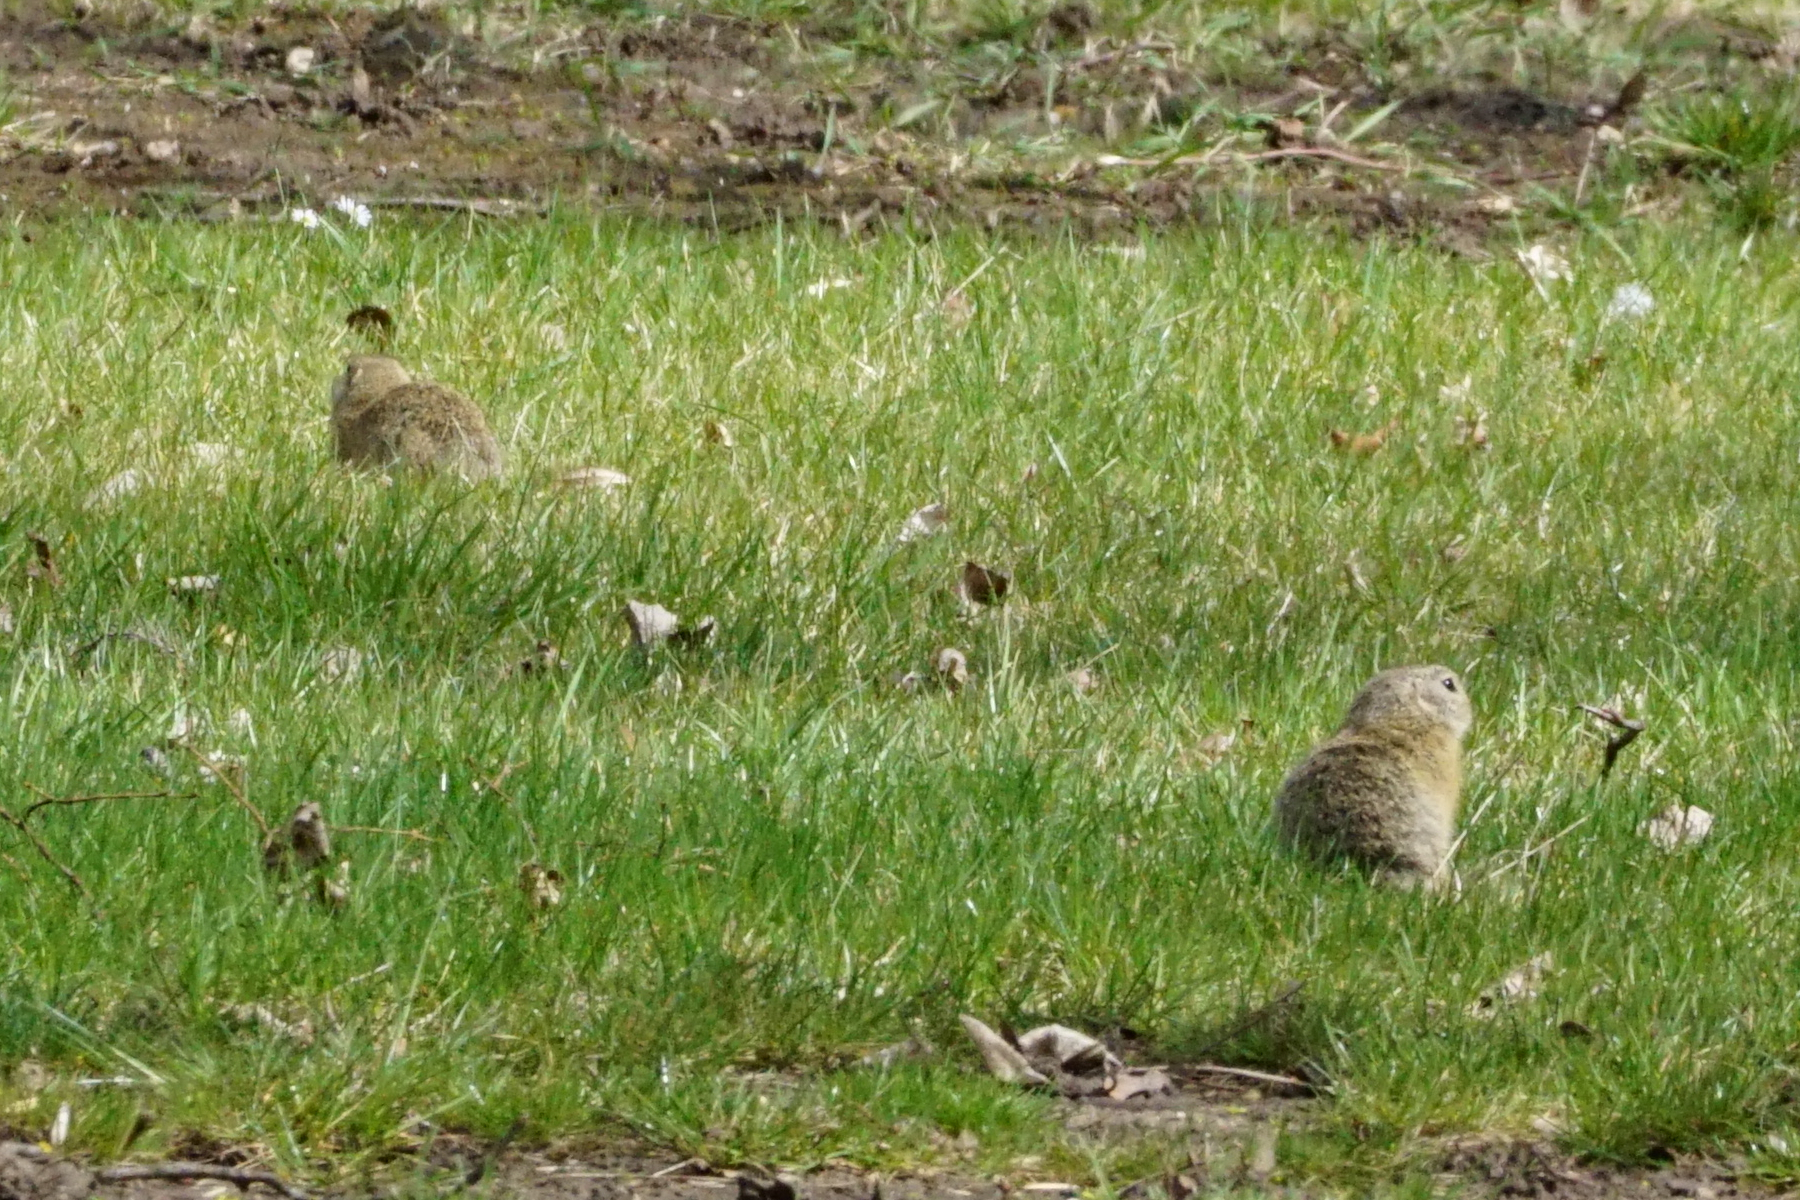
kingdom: Animalia
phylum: Chordata
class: Mammalia
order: Rodentia
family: Sciuridae
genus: Spermophilus
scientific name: Spermophilus citellus
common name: European ground squirrel
